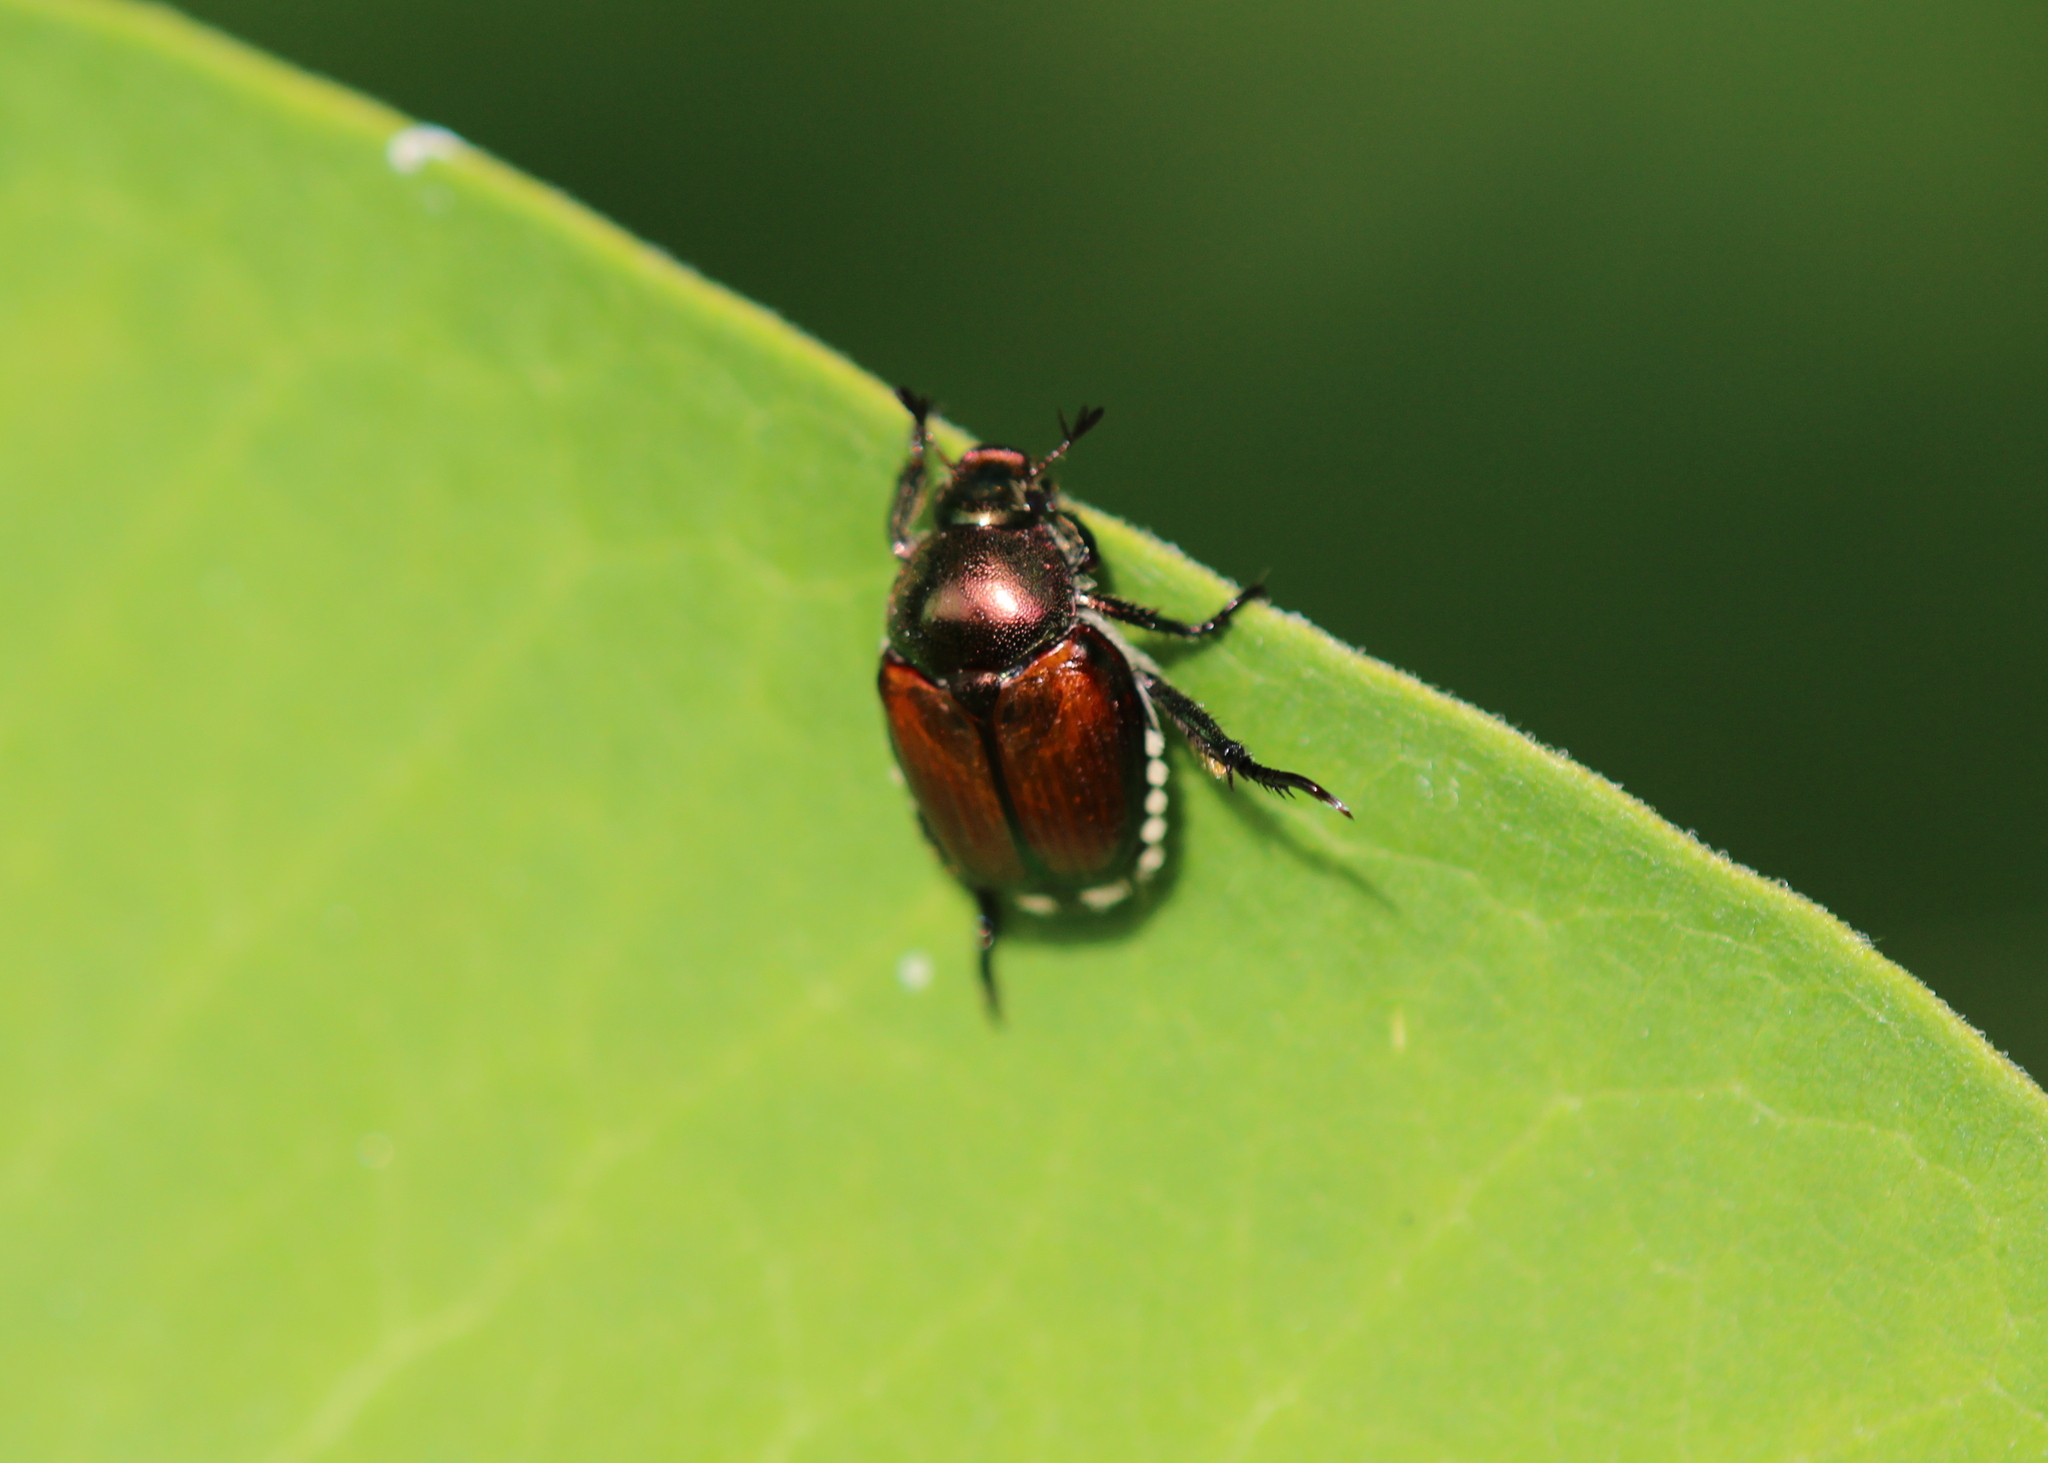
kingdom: Animalia
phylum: Arthropoda
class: Insecta
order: Coleoptera
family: Scarabaeidae
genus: Popillia
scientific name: Popillia japonica
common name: Japanese beetle
